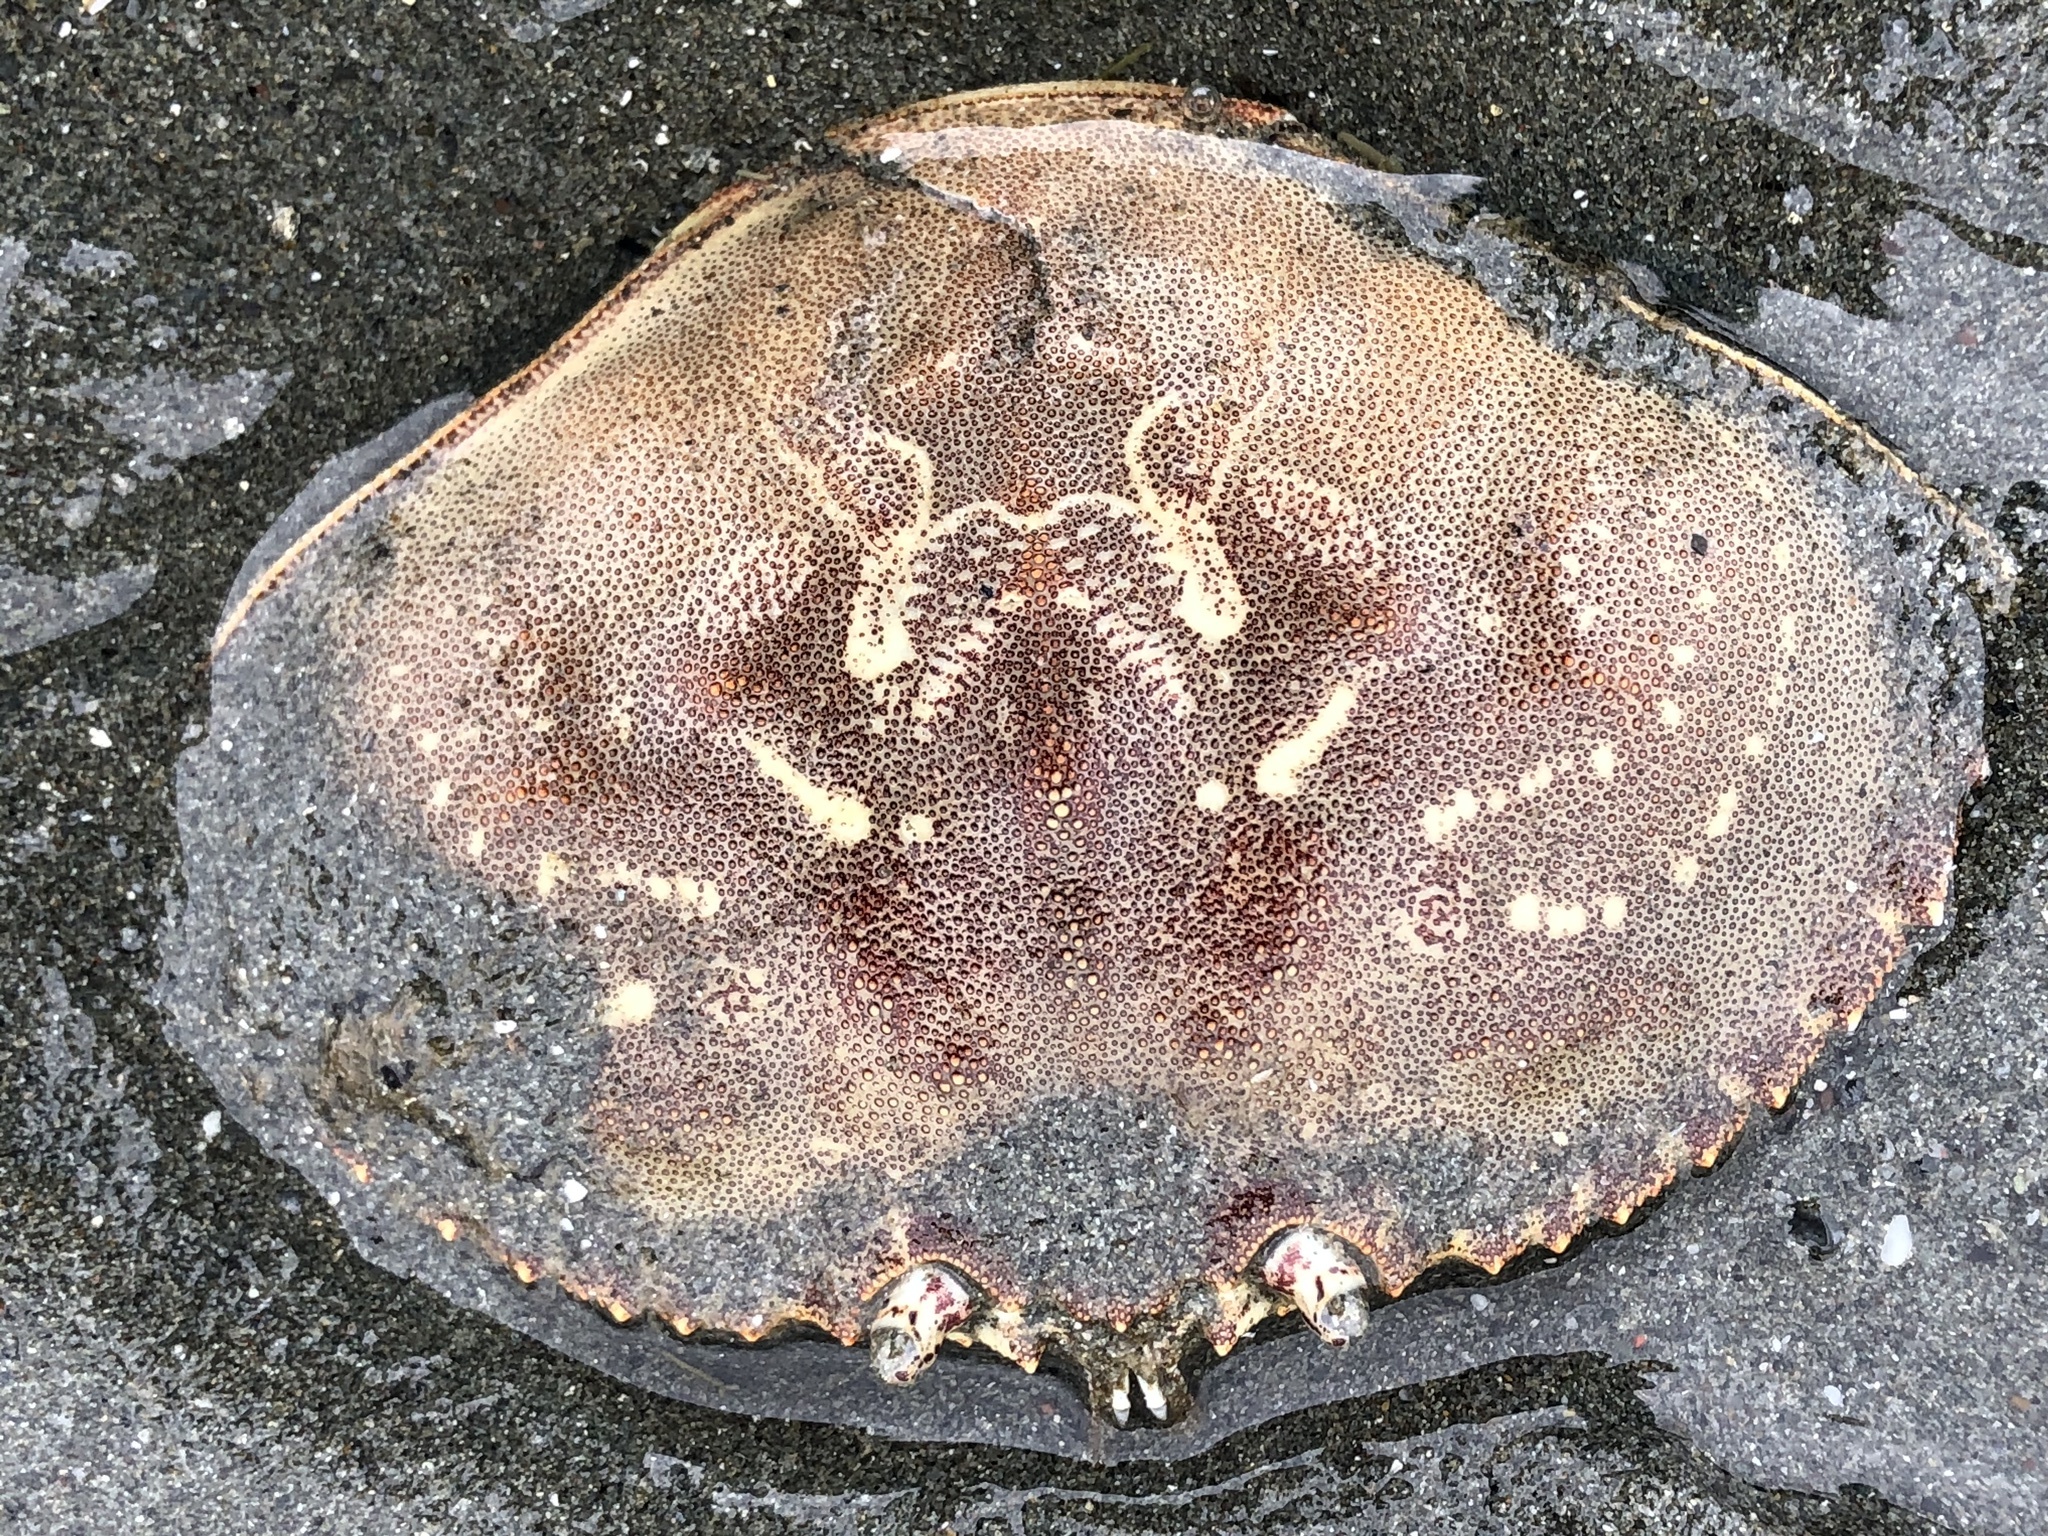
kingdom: Animalia
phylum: Arthropoda
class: Malacostraca
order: Decapoda
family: Cancridae
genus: Metacarcinus
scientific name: Metacarcinus magister
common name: Californian crab
